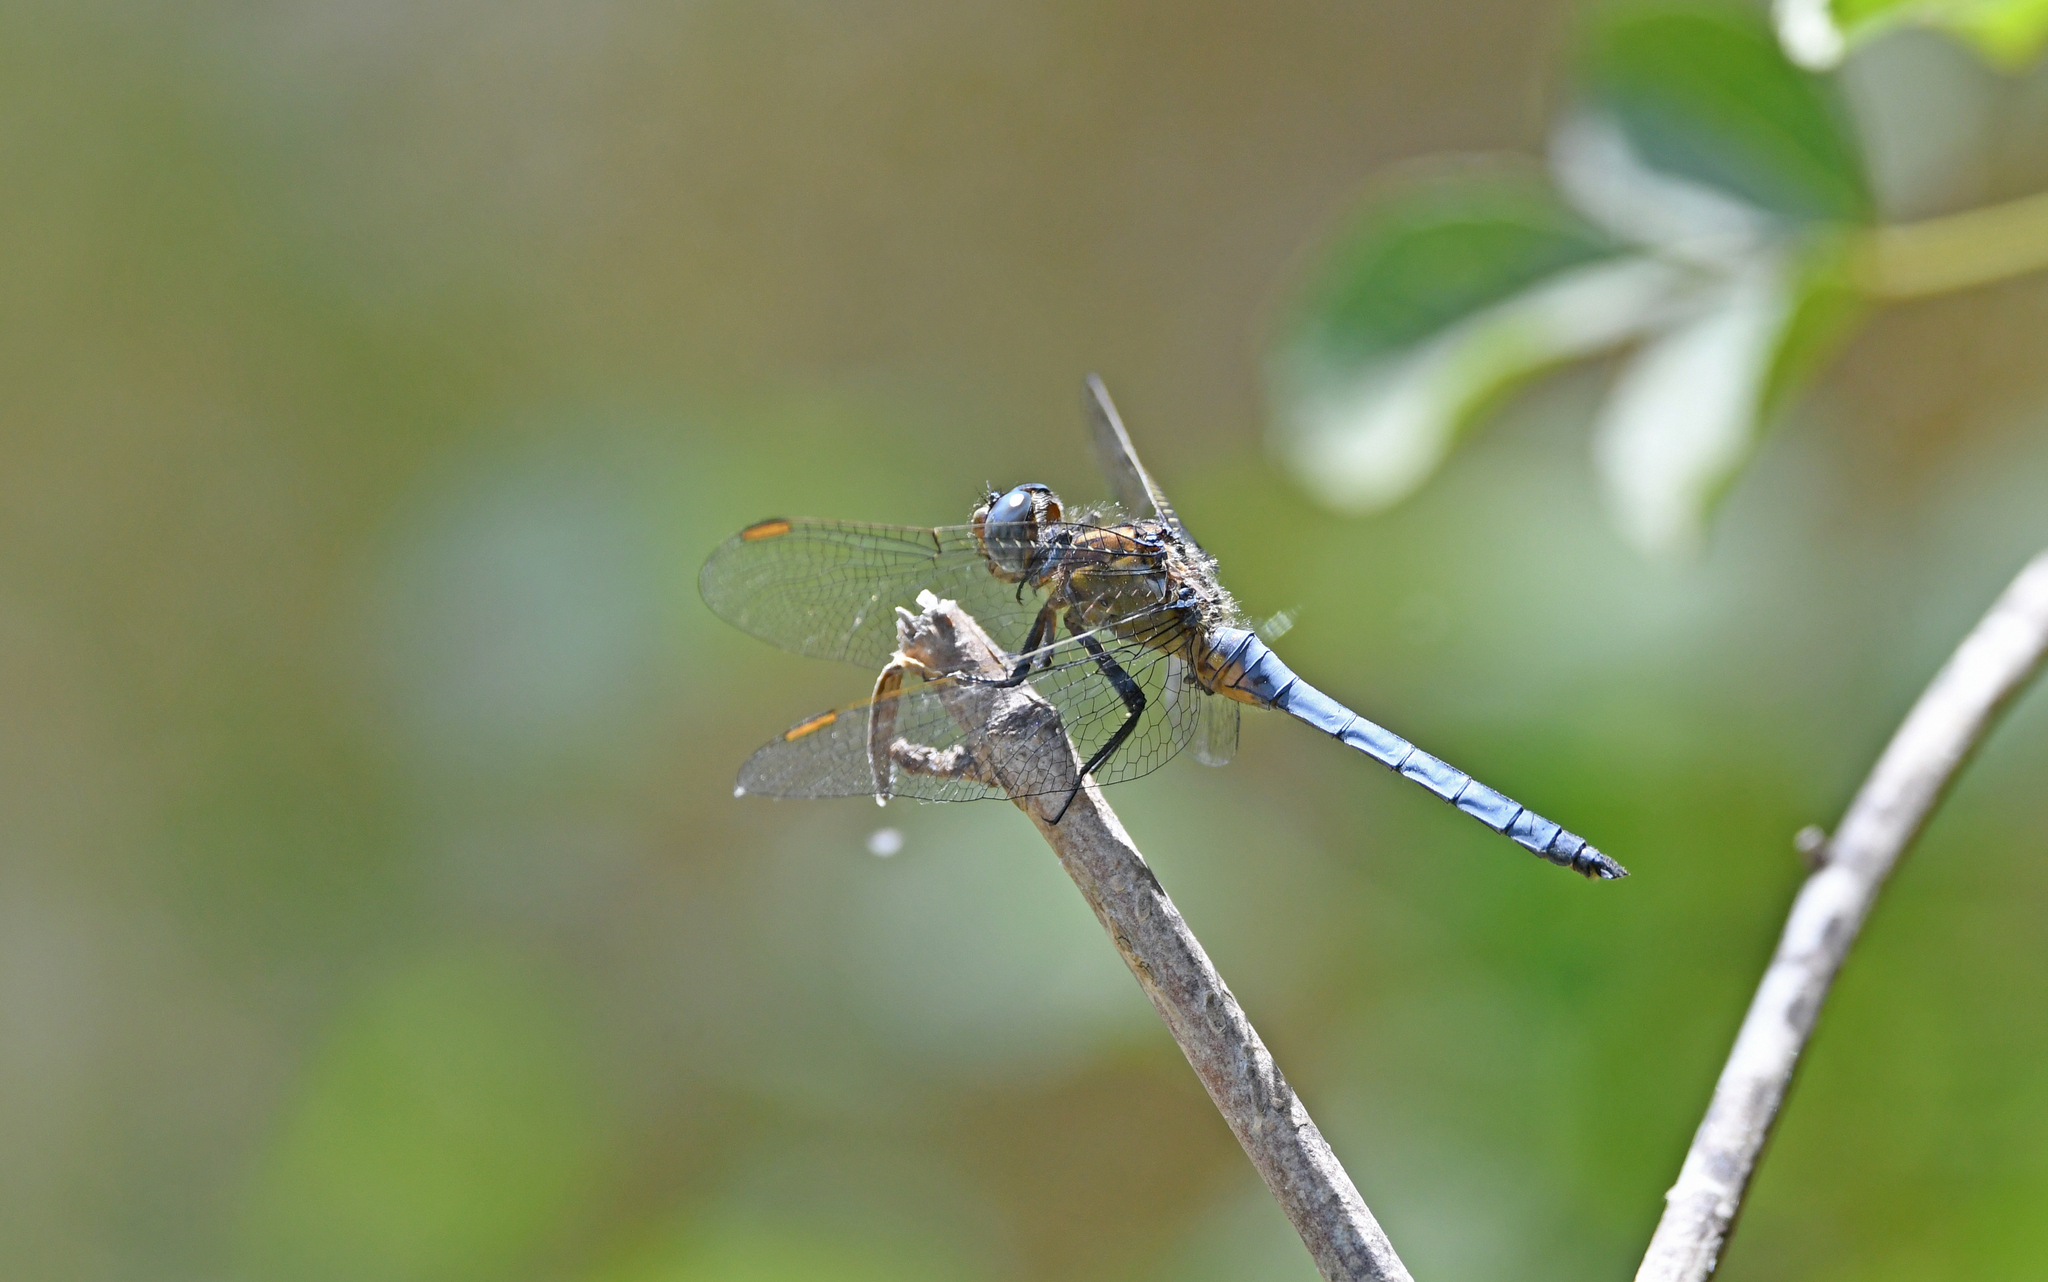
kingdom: Animalia
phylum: Arthropoda
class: Insecta
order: Odonata
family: Libellulidae
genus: Orthetrum
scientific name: Orthetrum coerulescens
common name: Keeled skimmer
